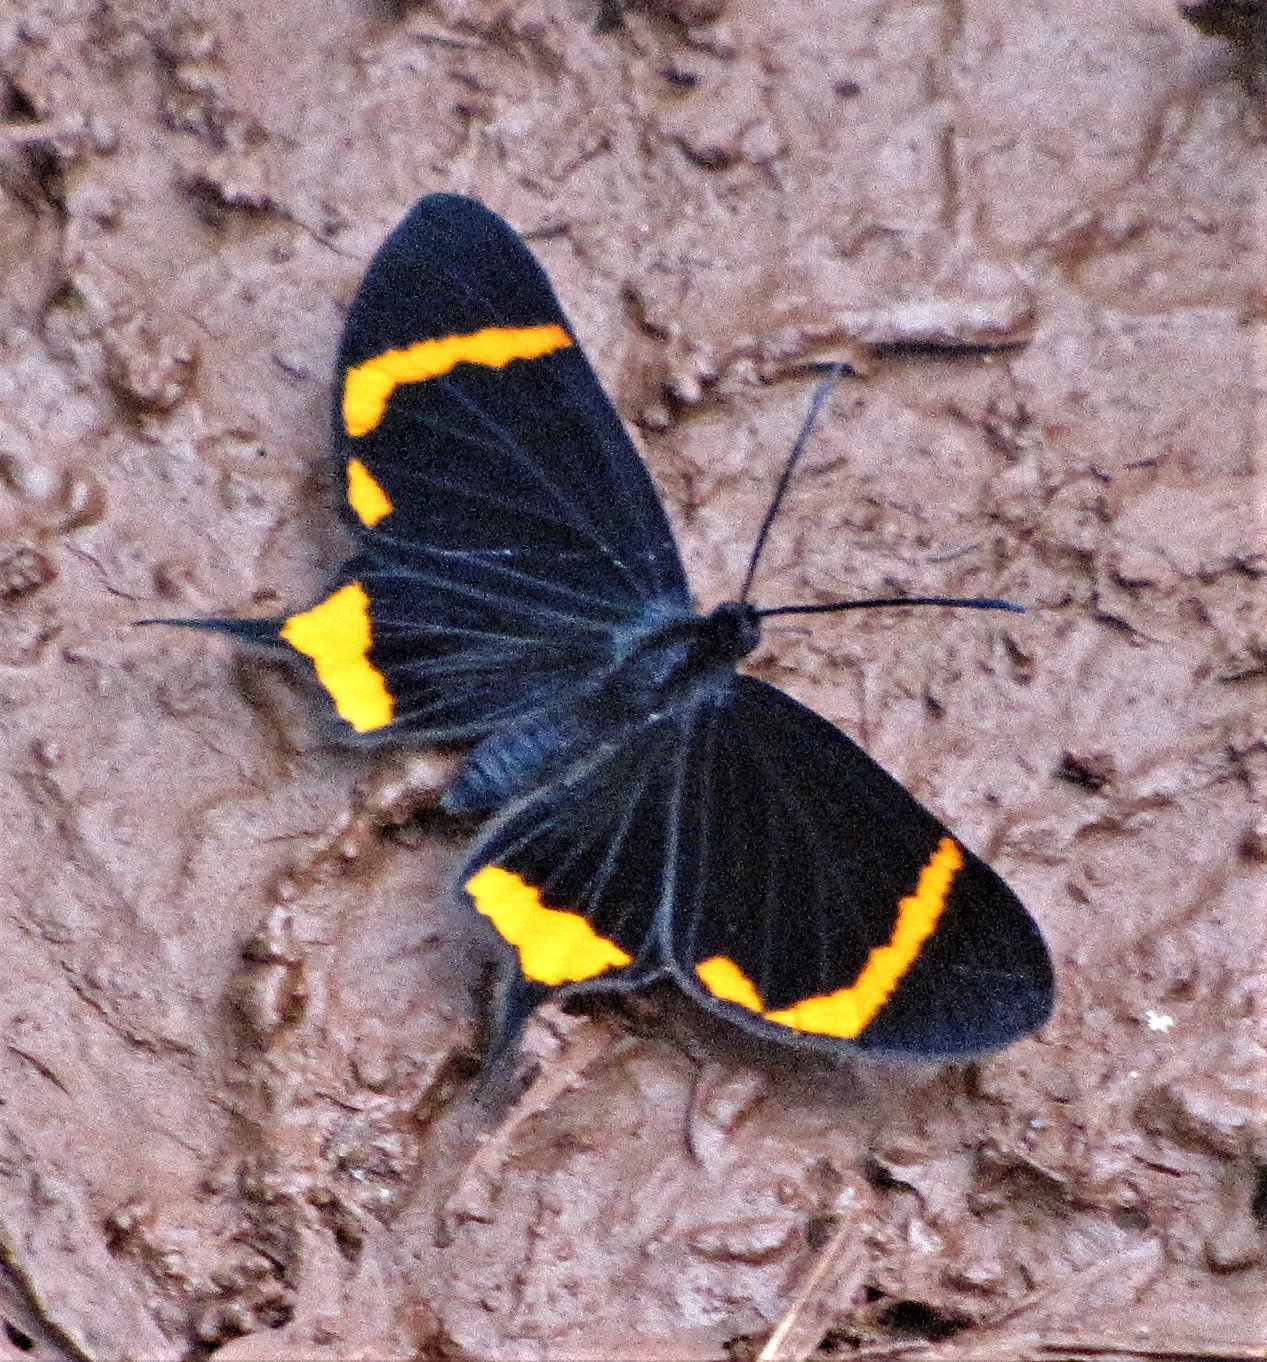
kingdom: Animalia
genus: Barbicornis
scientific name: Barbicornis basilis
